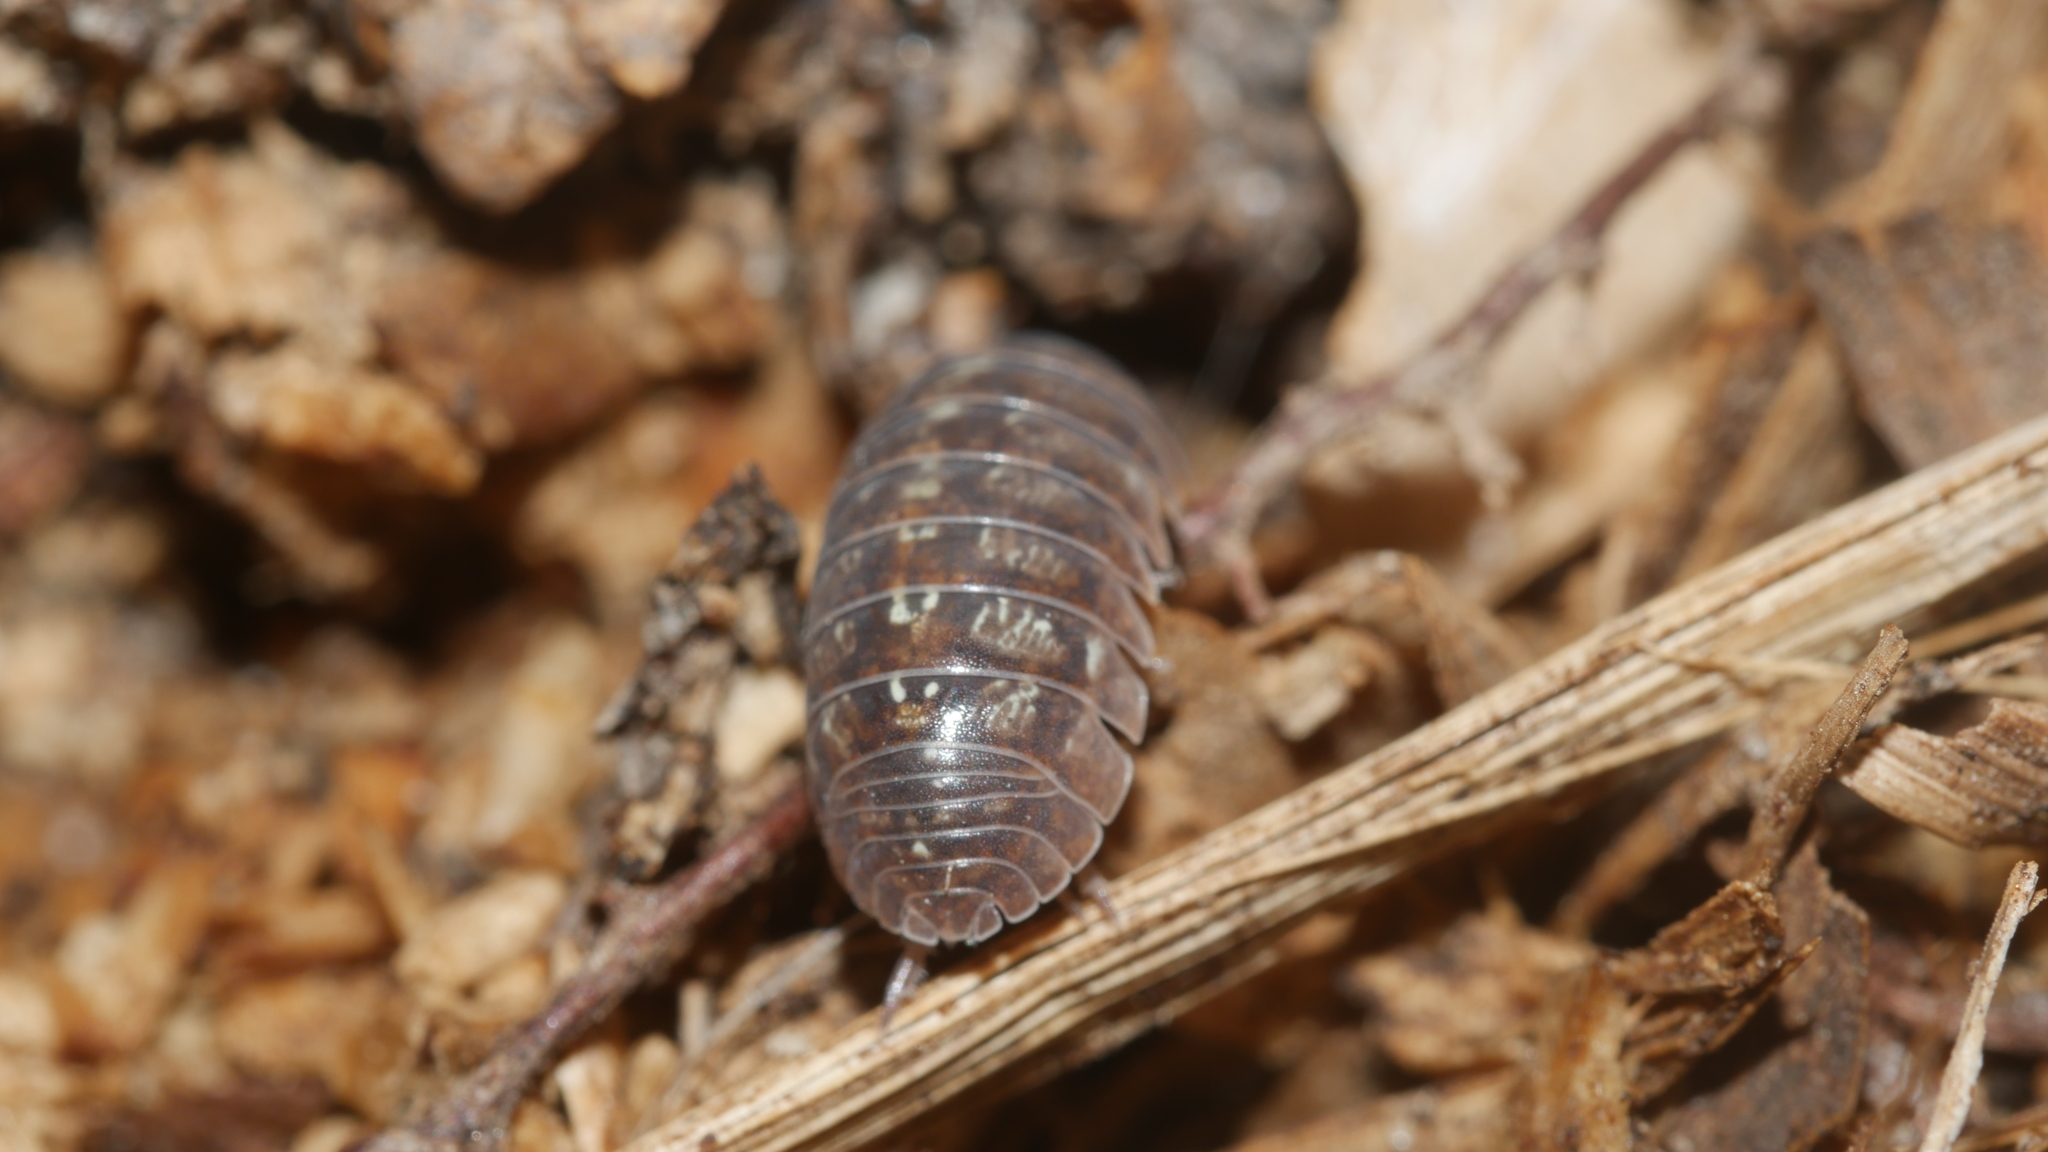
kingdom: Animalia
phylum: Arthropoda
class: Malacostraca
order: Isopoda
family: Armadillidiidae
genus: Armadillidium
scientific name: Armadillidium vulgare
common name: Common pill woodlouse
